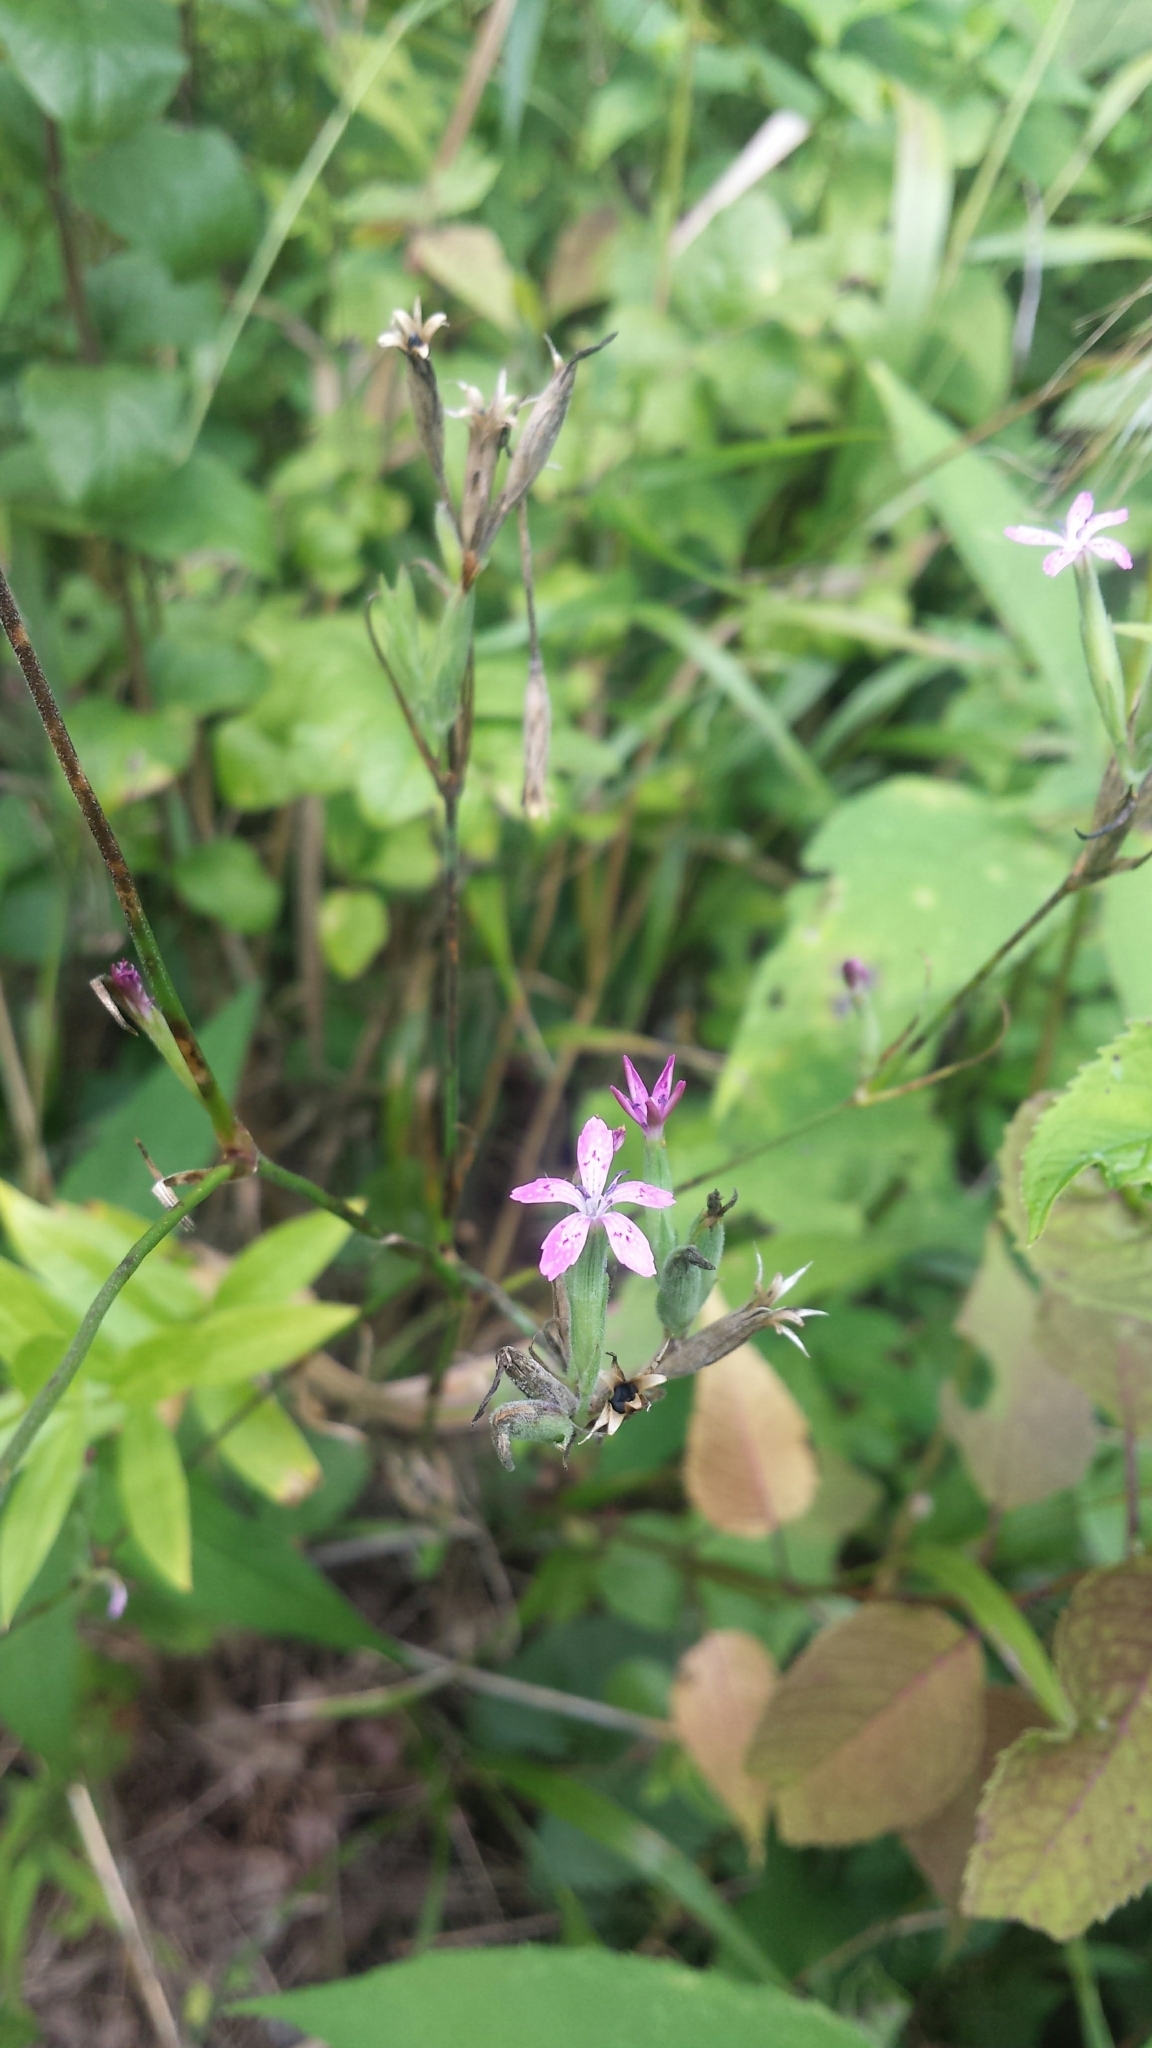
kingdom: Plantae
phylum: Tracheophyta
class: Magnoliopsida
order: Caryophyllales
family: Caryophyllaceae
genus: Dianthus
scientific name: Dianthus armeria
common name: Deptford pink
